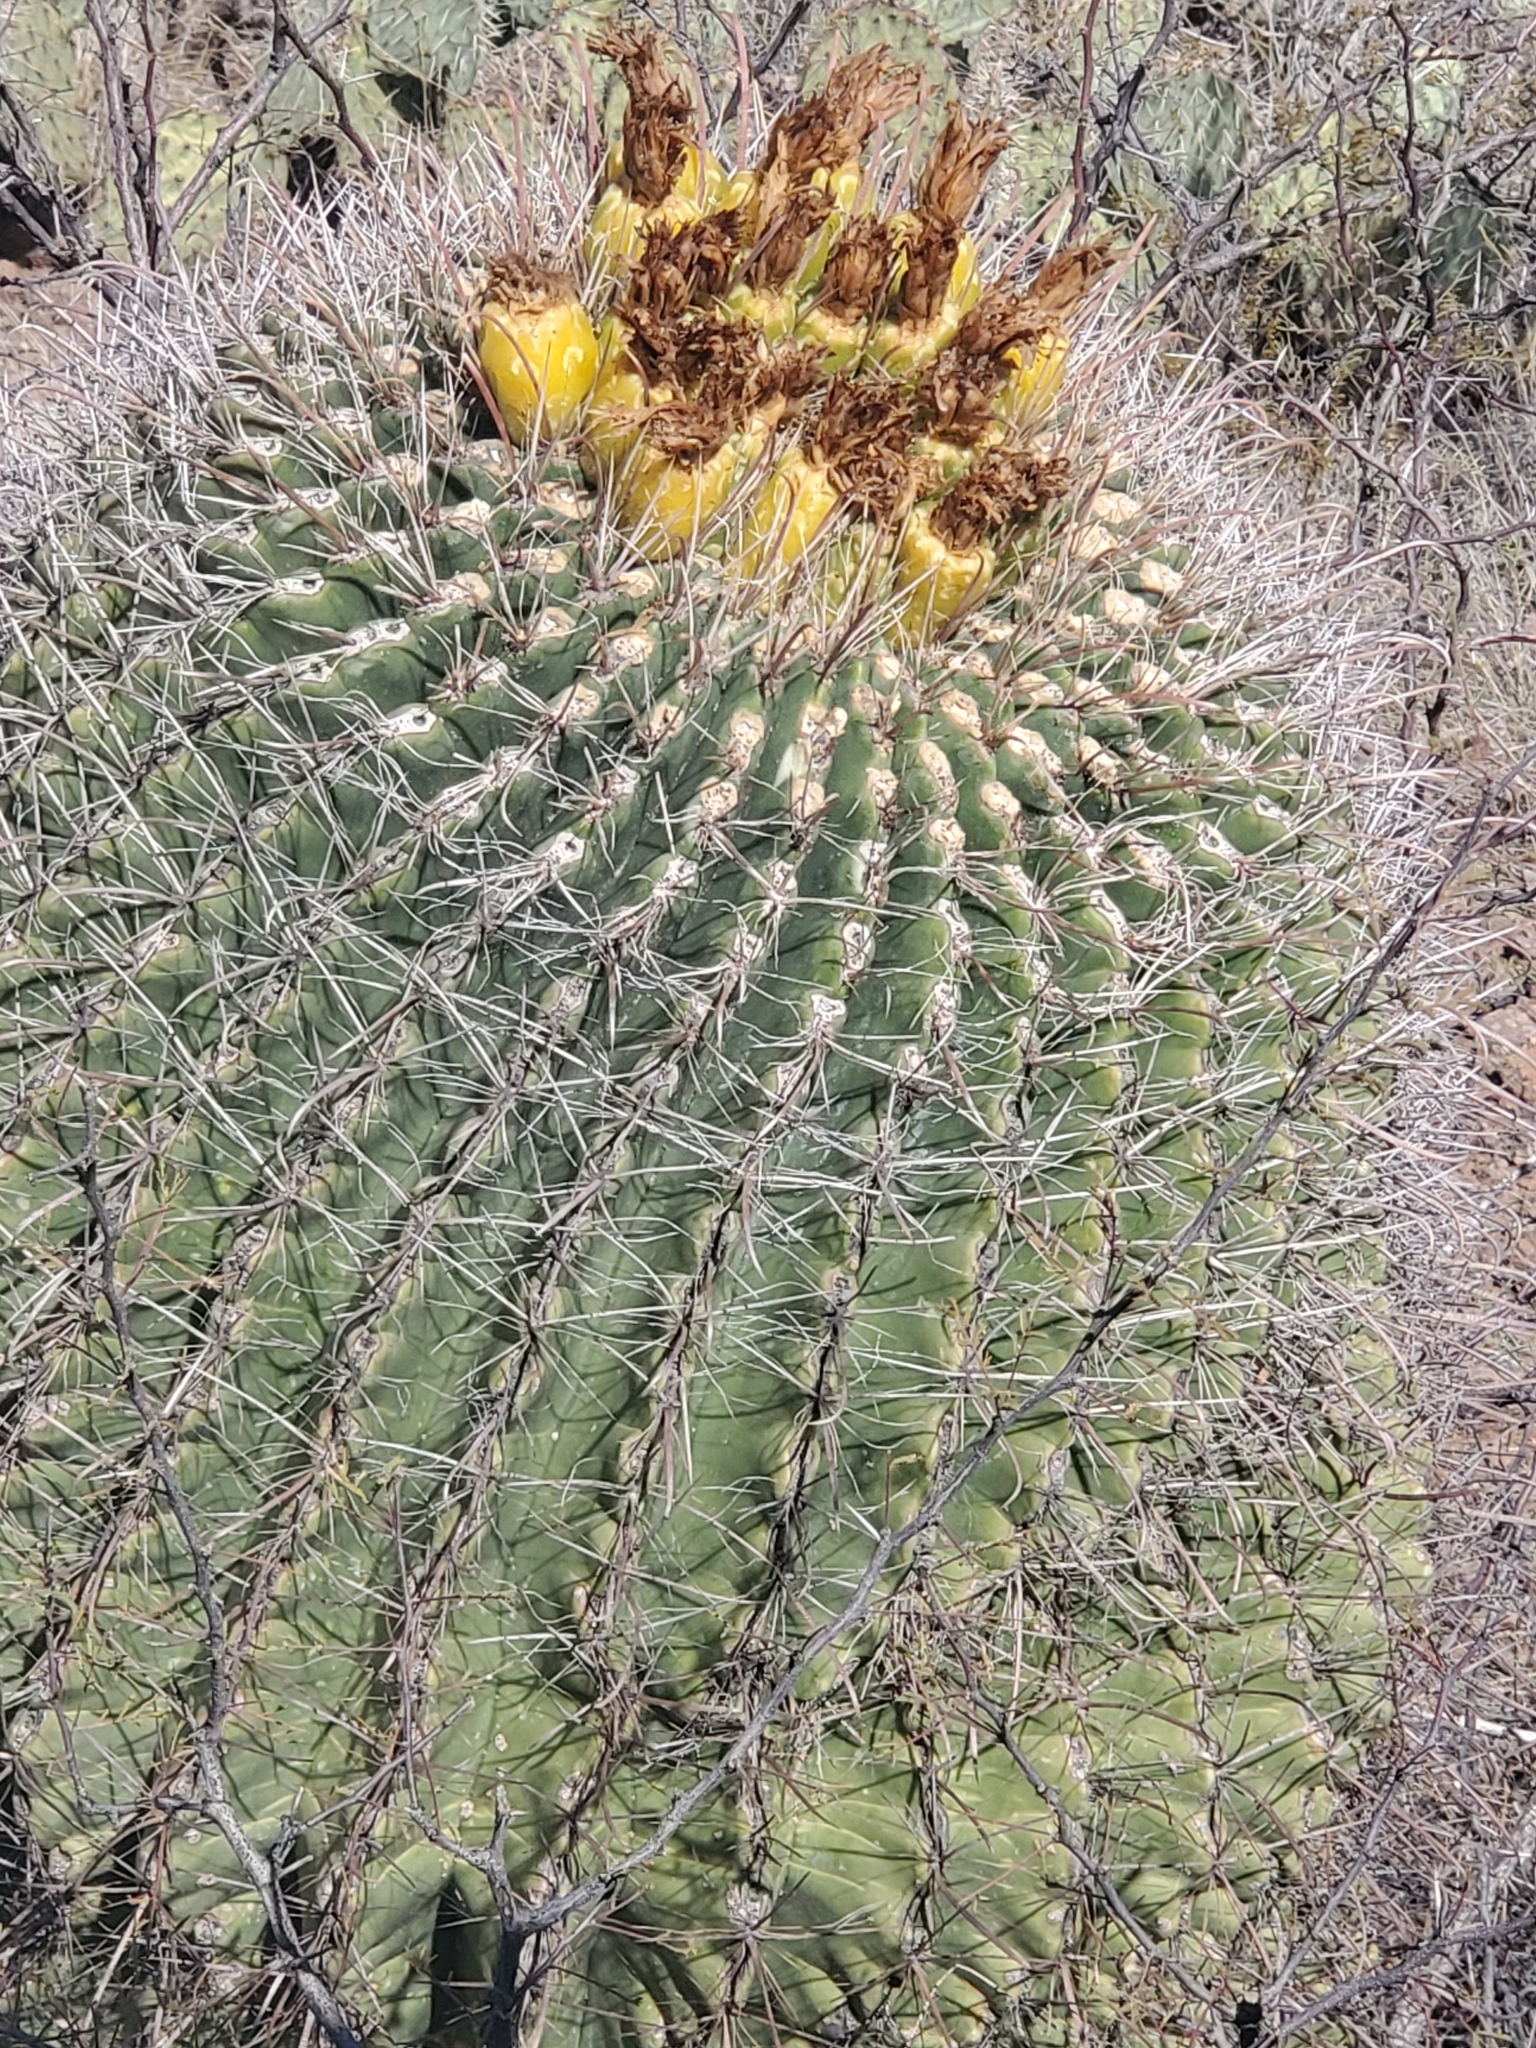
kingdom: Plantae
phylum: Tracheophyta
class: Magnoliopsida
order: Caryophyllales
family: Cactaceae
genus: Ferocactus
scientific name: Ferocactus wislizeni
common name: Candy barrel cactus
